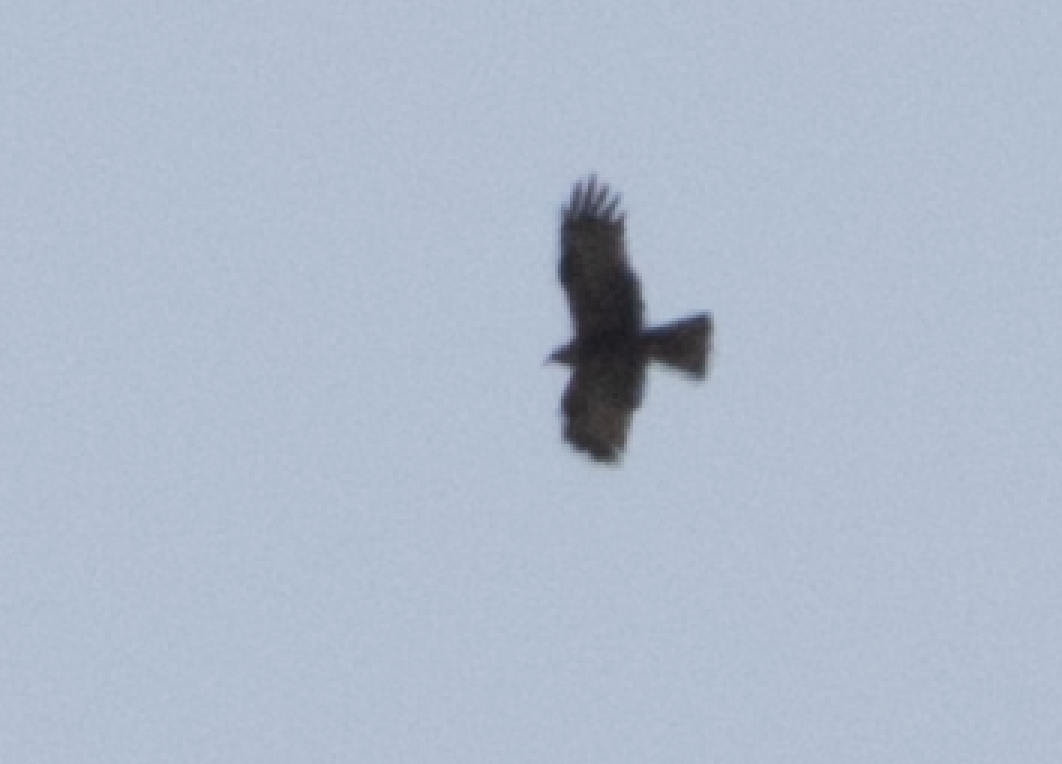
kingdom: Animalia
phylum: Chordata
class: Aves
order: Accipitriformes
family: Accipitridae
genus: Milvus
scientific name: Milvus migrans
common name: Black kite
